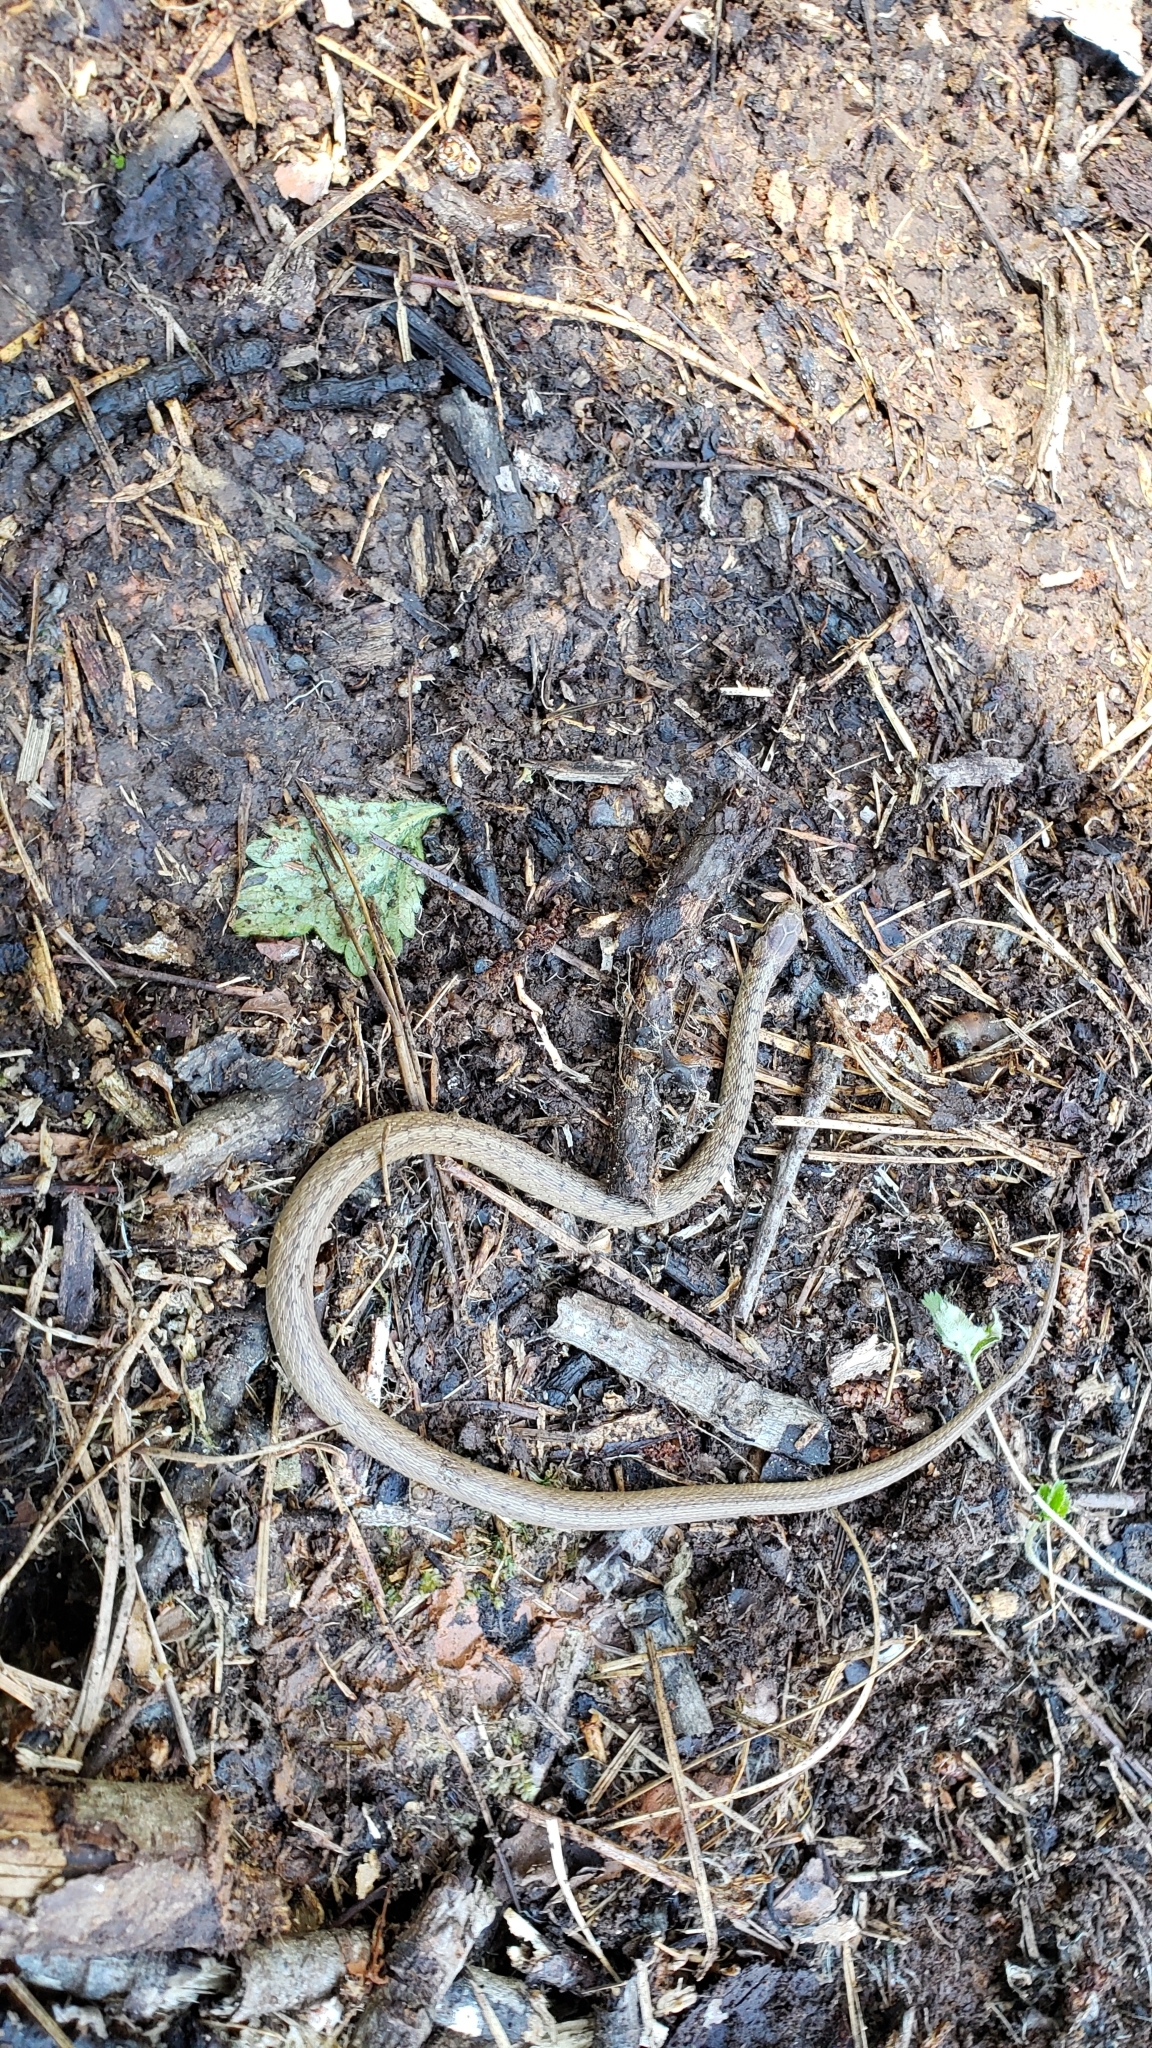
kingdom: Animalia
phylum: Chordata
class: Squamata
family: Colubridae
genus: Storeria
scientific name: Storeria dekayi
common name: (dekay’s) brown snake
